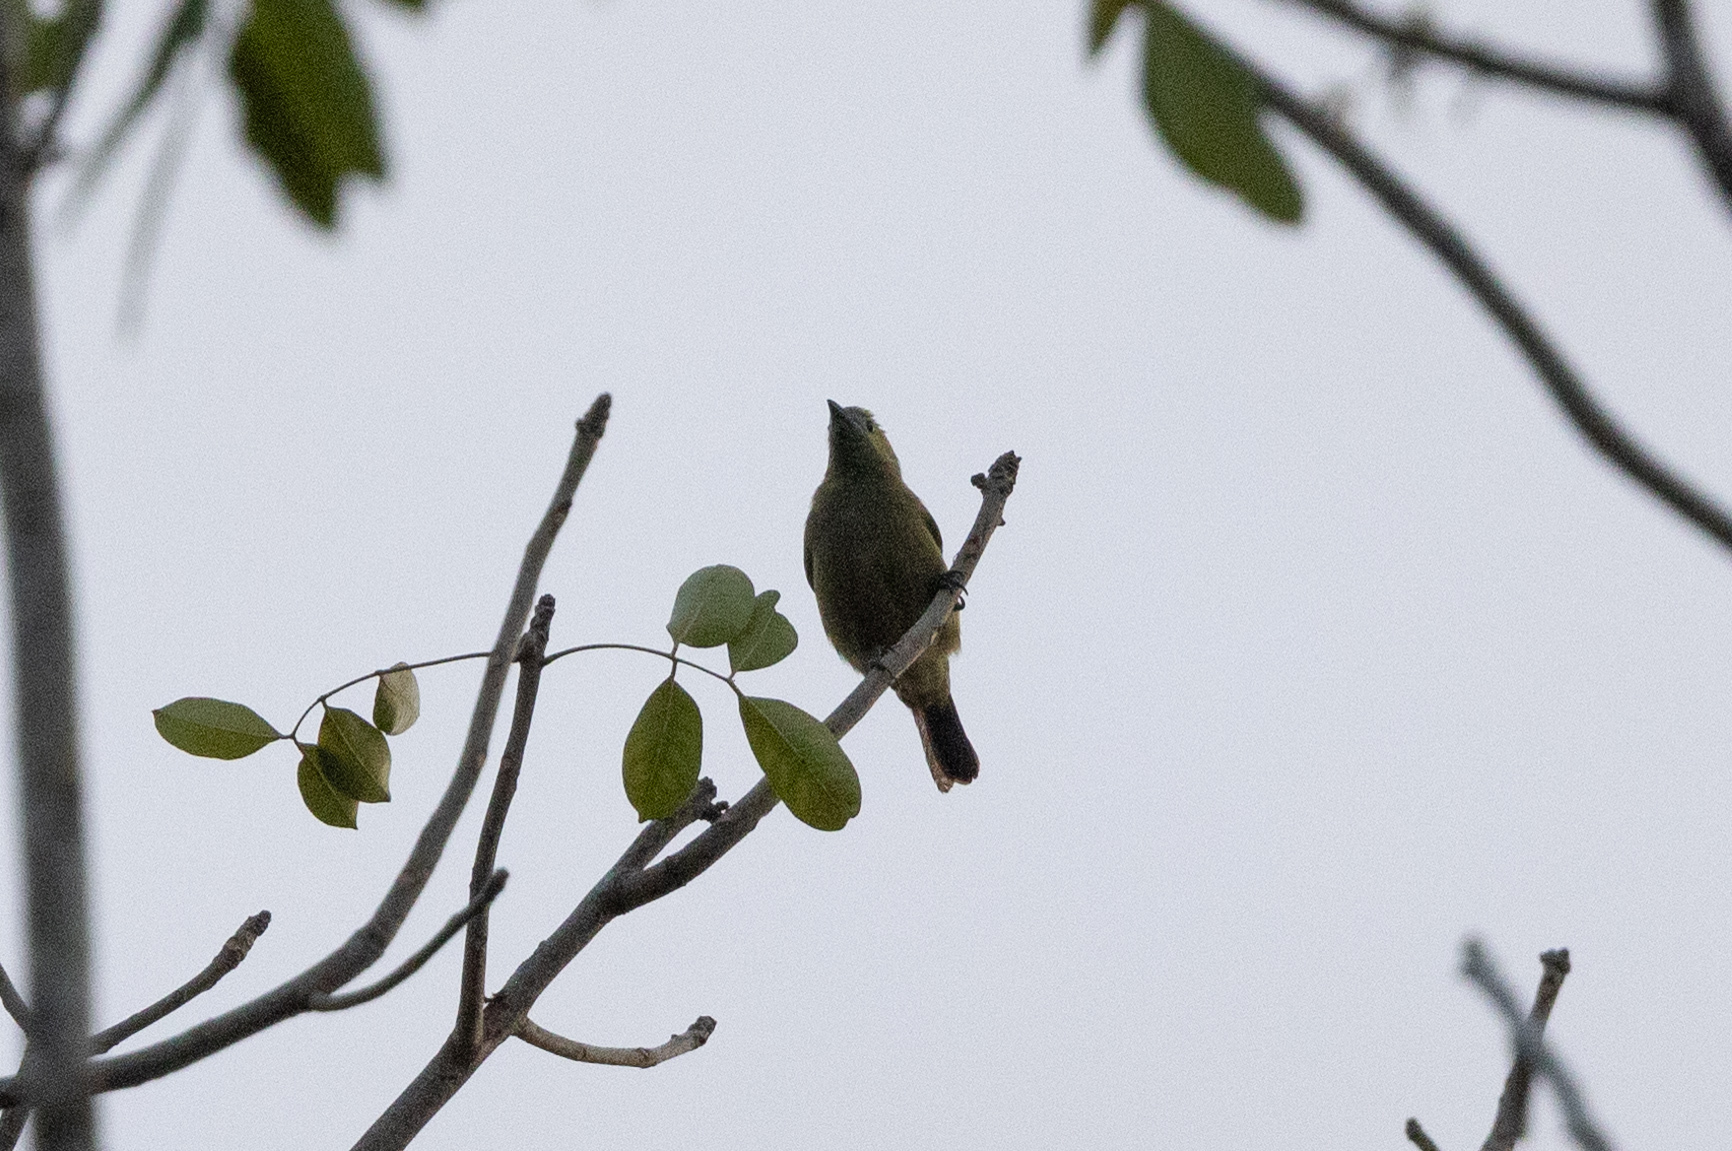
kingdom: Animalia
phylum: Chordata
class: Aves
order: Passeriformes
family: Thraupidae
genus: Thraupis
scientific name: Thraupis palmarum
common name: Palm tanager
